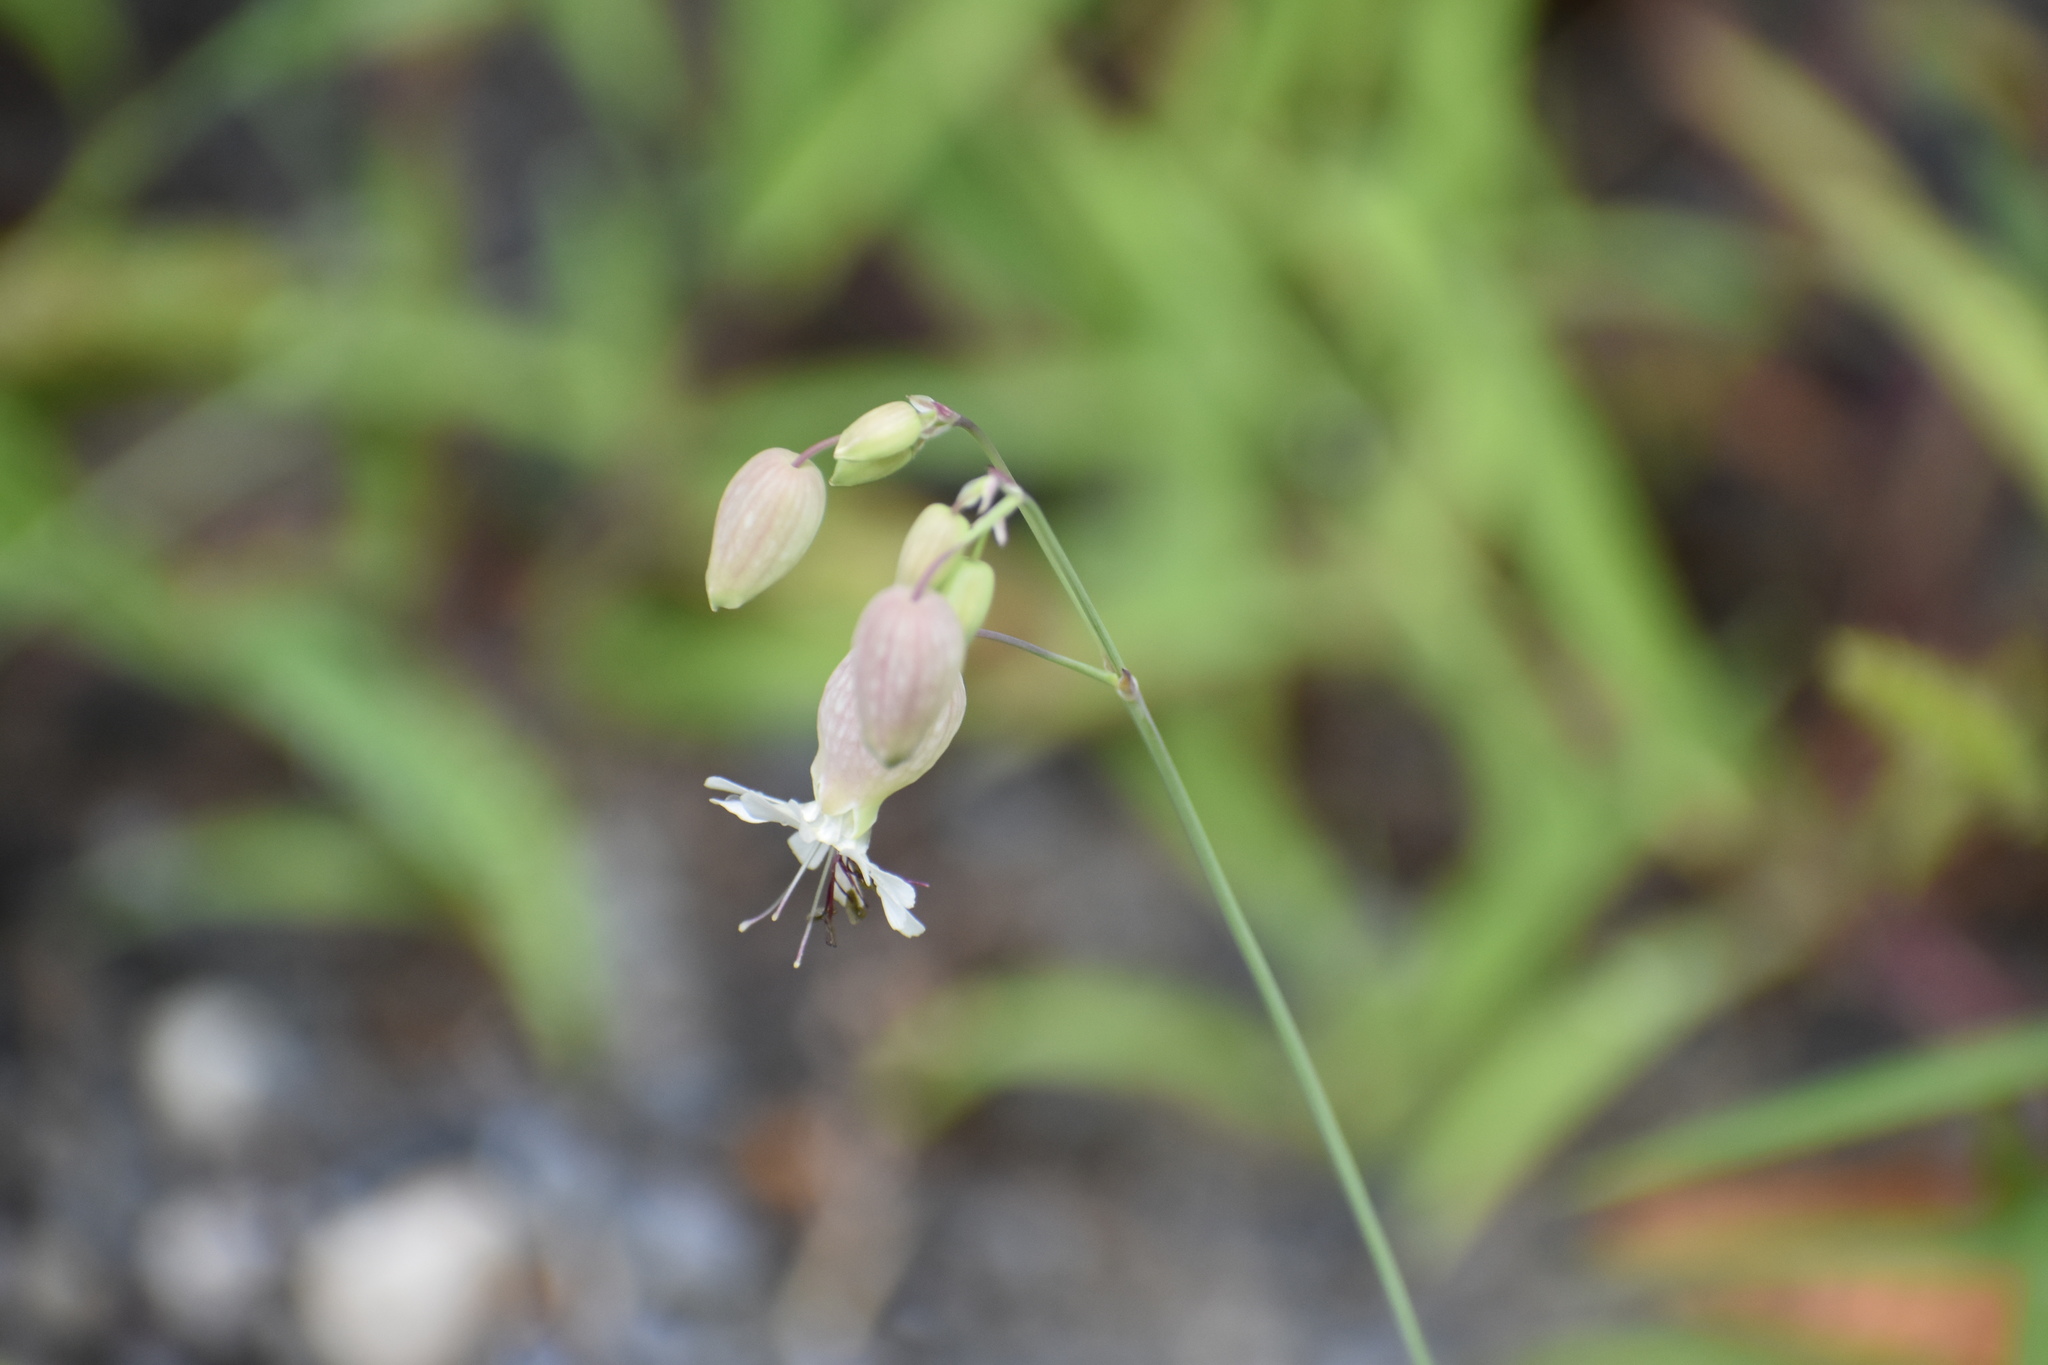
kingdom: Plantae
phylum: Tracheophyta
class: Magnoliopsida
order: Caryophyllales
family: Caryophyllaceae
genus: Silene
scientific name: Silene vulgaris
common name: Bladder campion
